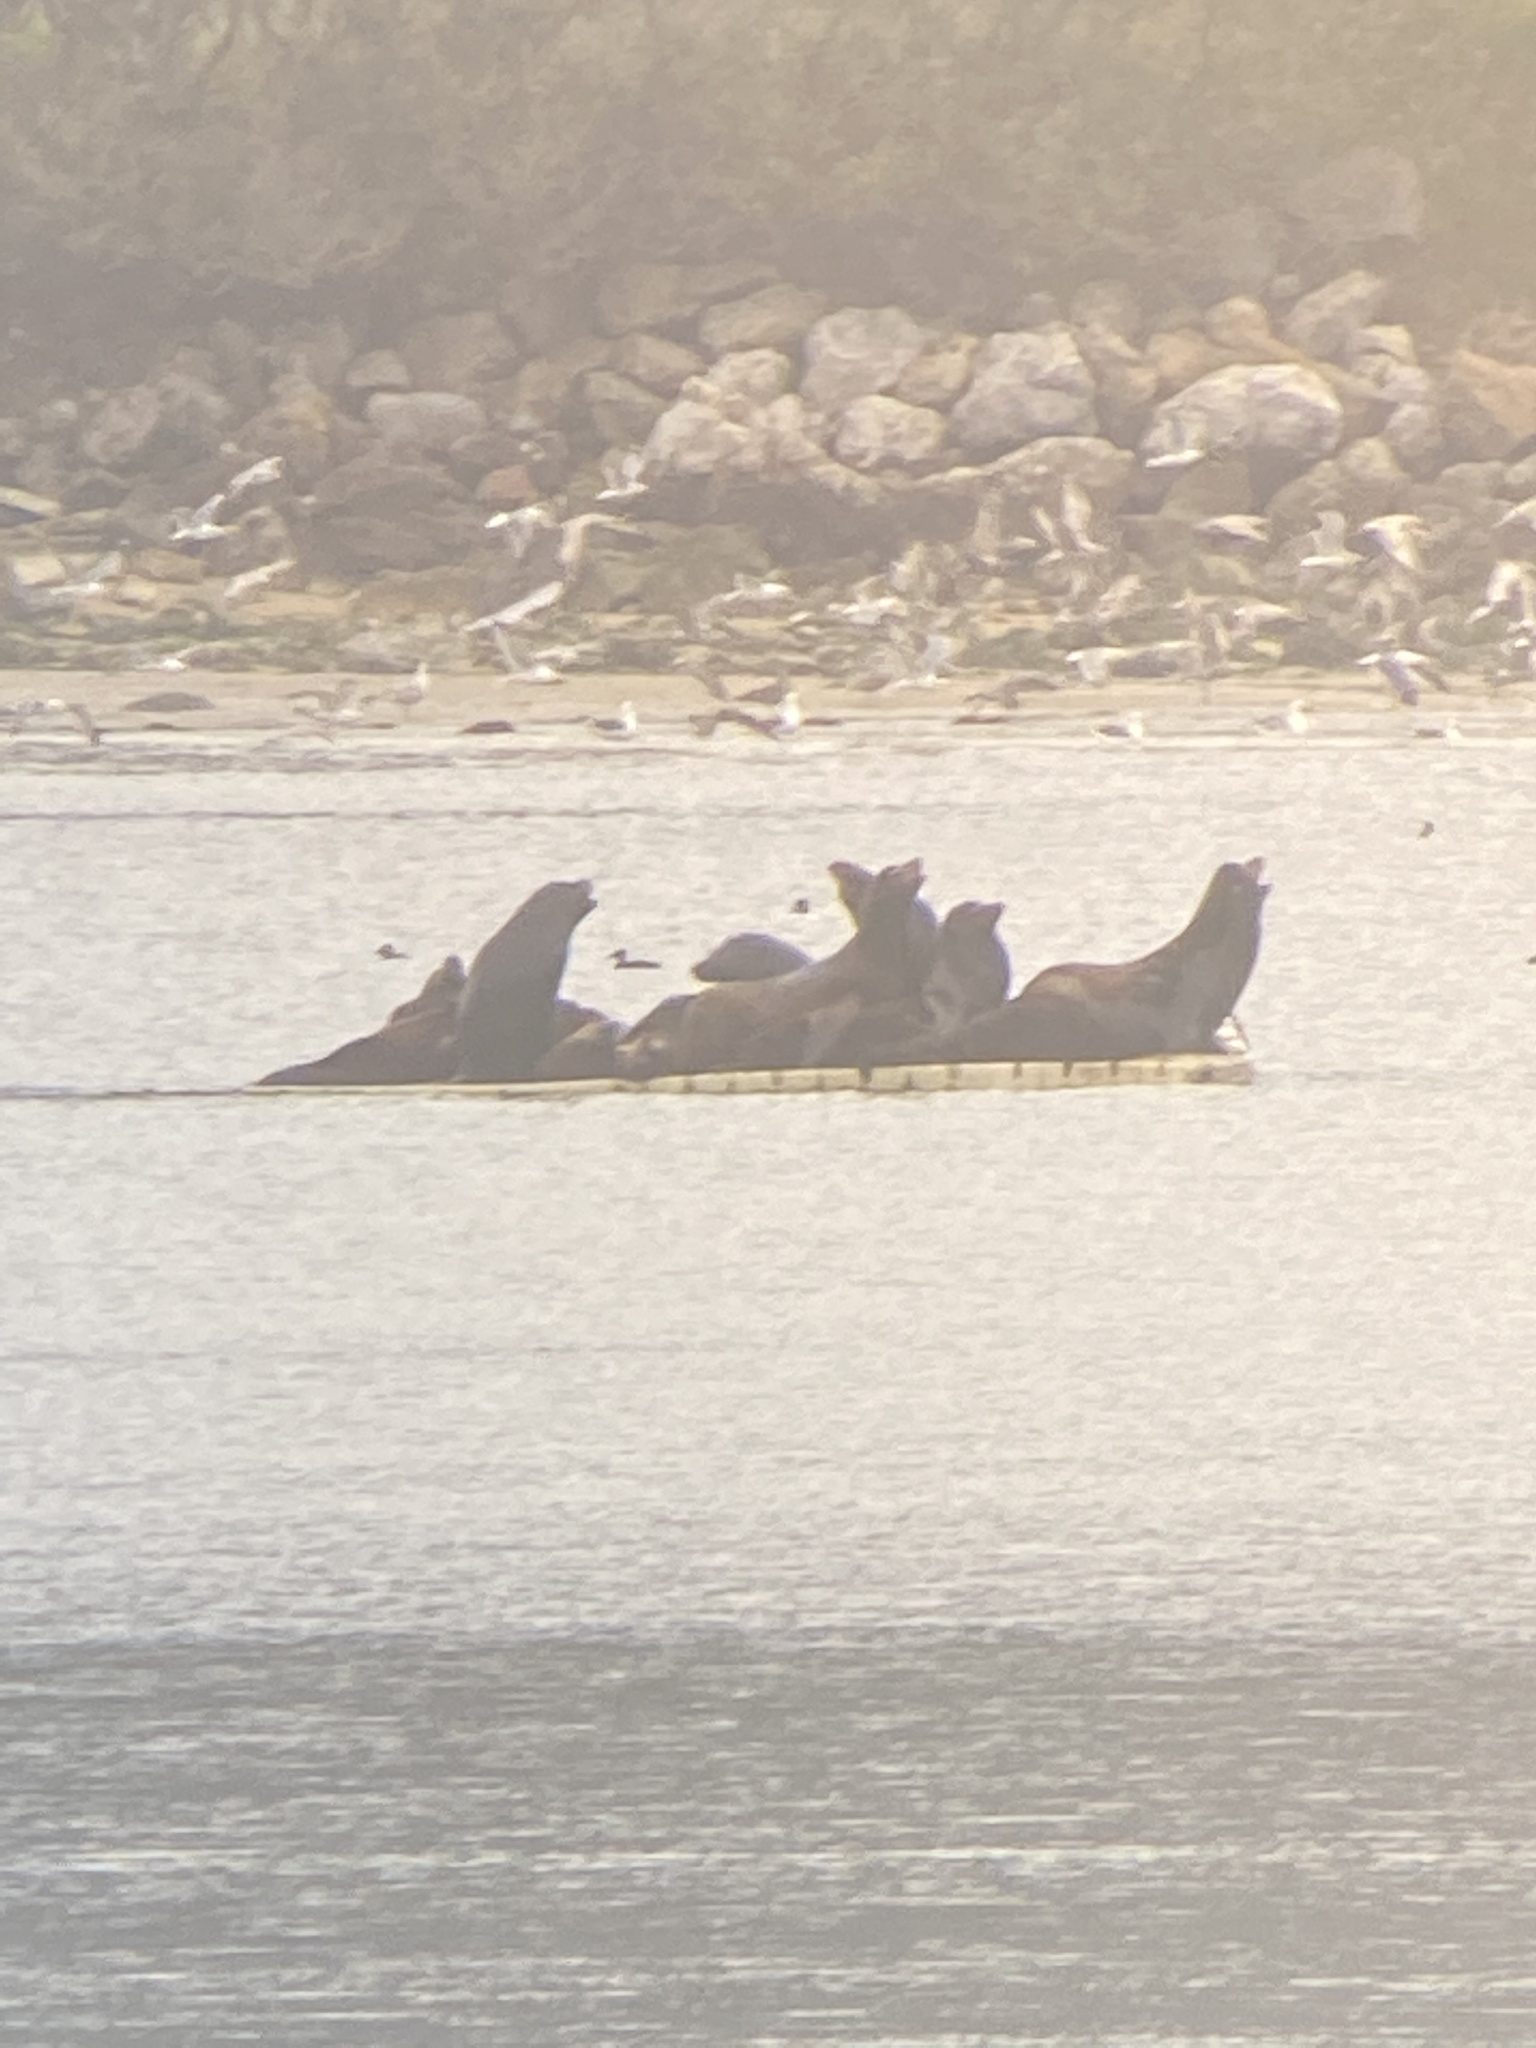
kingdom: Animalia
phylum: Chordata
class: Mammalia
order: Carnivora
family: Otariidae
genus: Zalophus
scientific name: Zalophus californianus
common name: California sea lion
